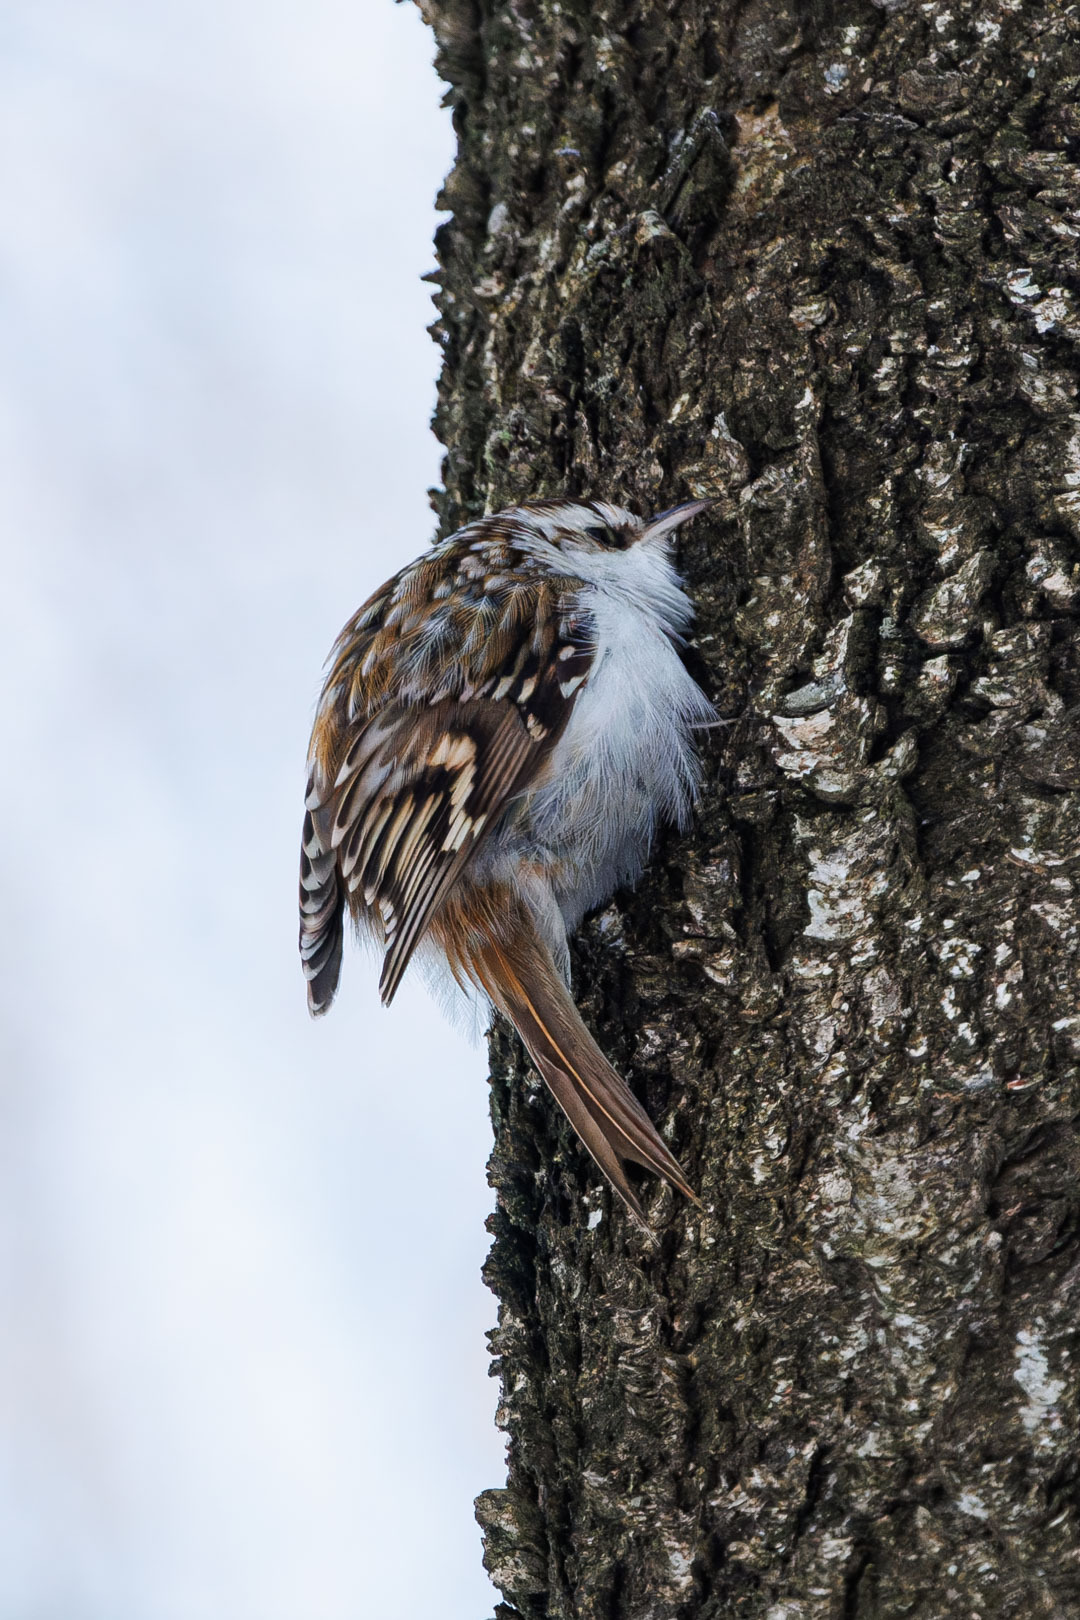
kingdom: Animalia
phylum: Chordata
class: Aves
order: Passeriformes
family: Certhiidae
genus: Certhia
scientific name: Certhia familiaris
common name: Eurasian treecreeper
